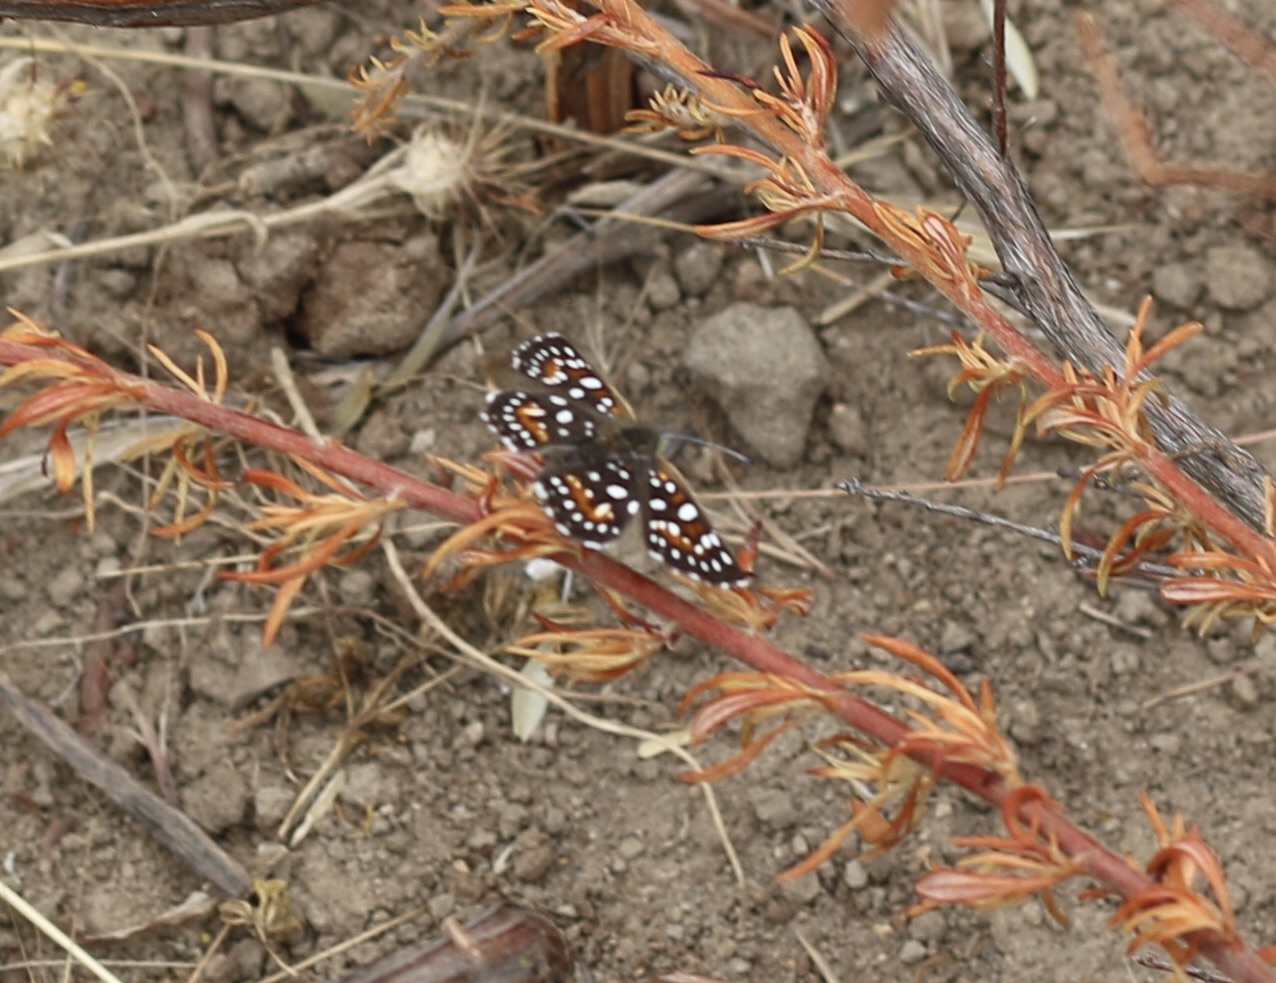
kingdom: Animalia
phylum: Arthropoda
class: Insecta
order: Lepidoptera
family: Riodinidae
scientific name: Riodinidae
